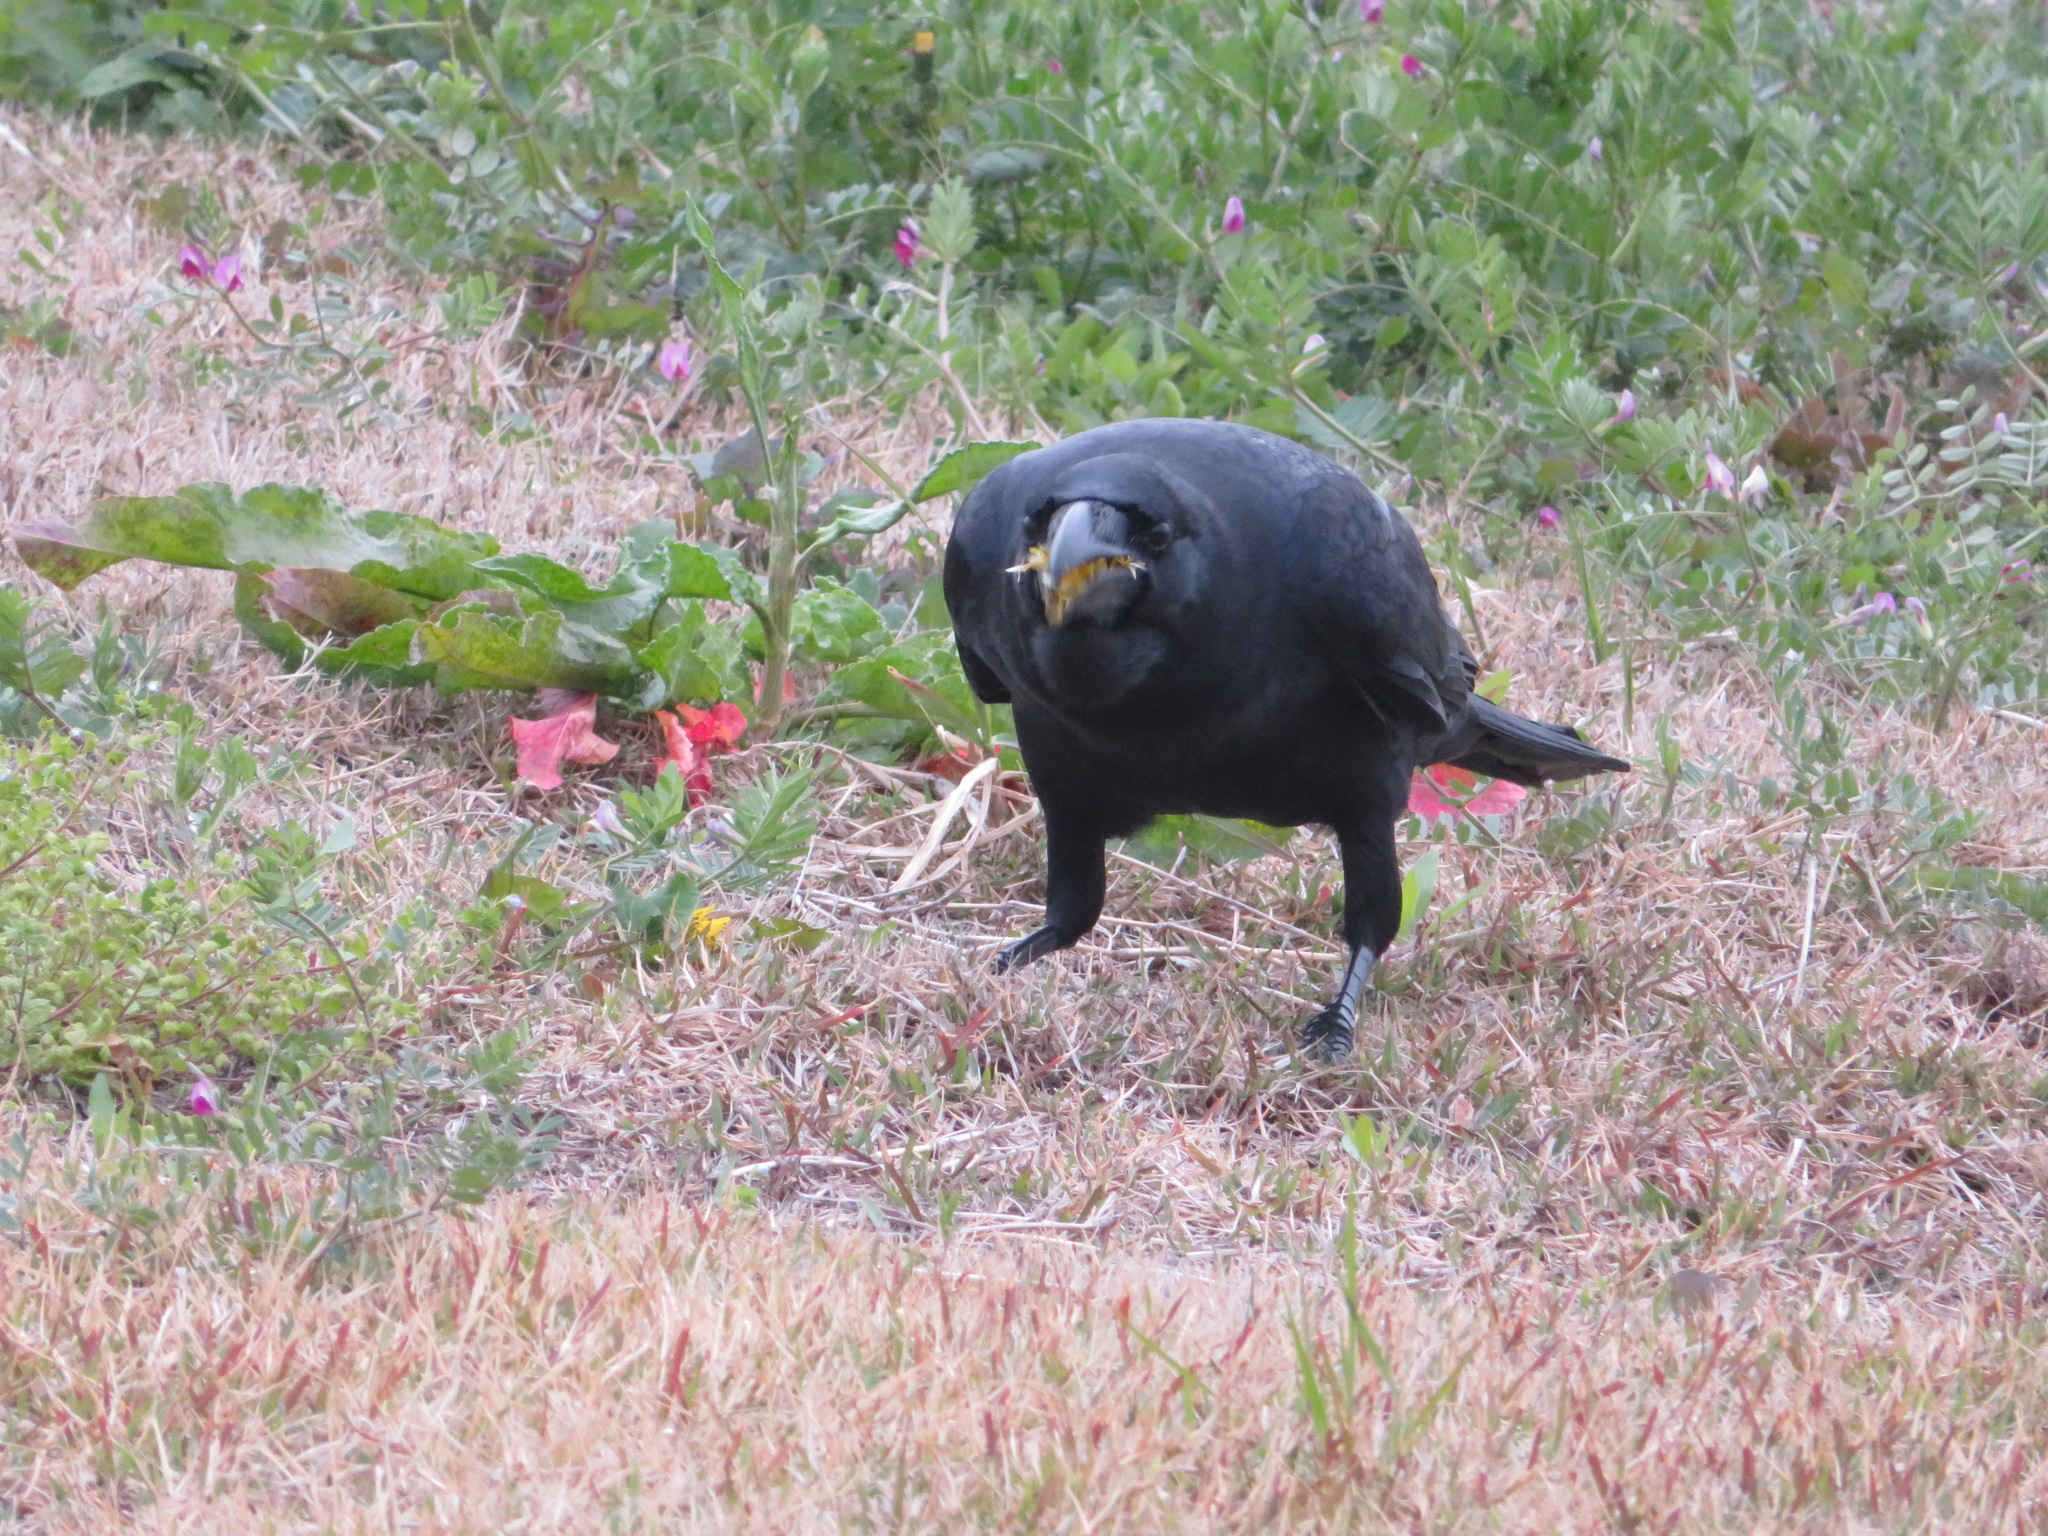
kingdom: Animalia
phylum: Chordata
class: Aves
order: Passeriformes
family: Corvidae
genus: Corvus
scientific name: Corvus macrorhynchos
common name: Large-billed crow
